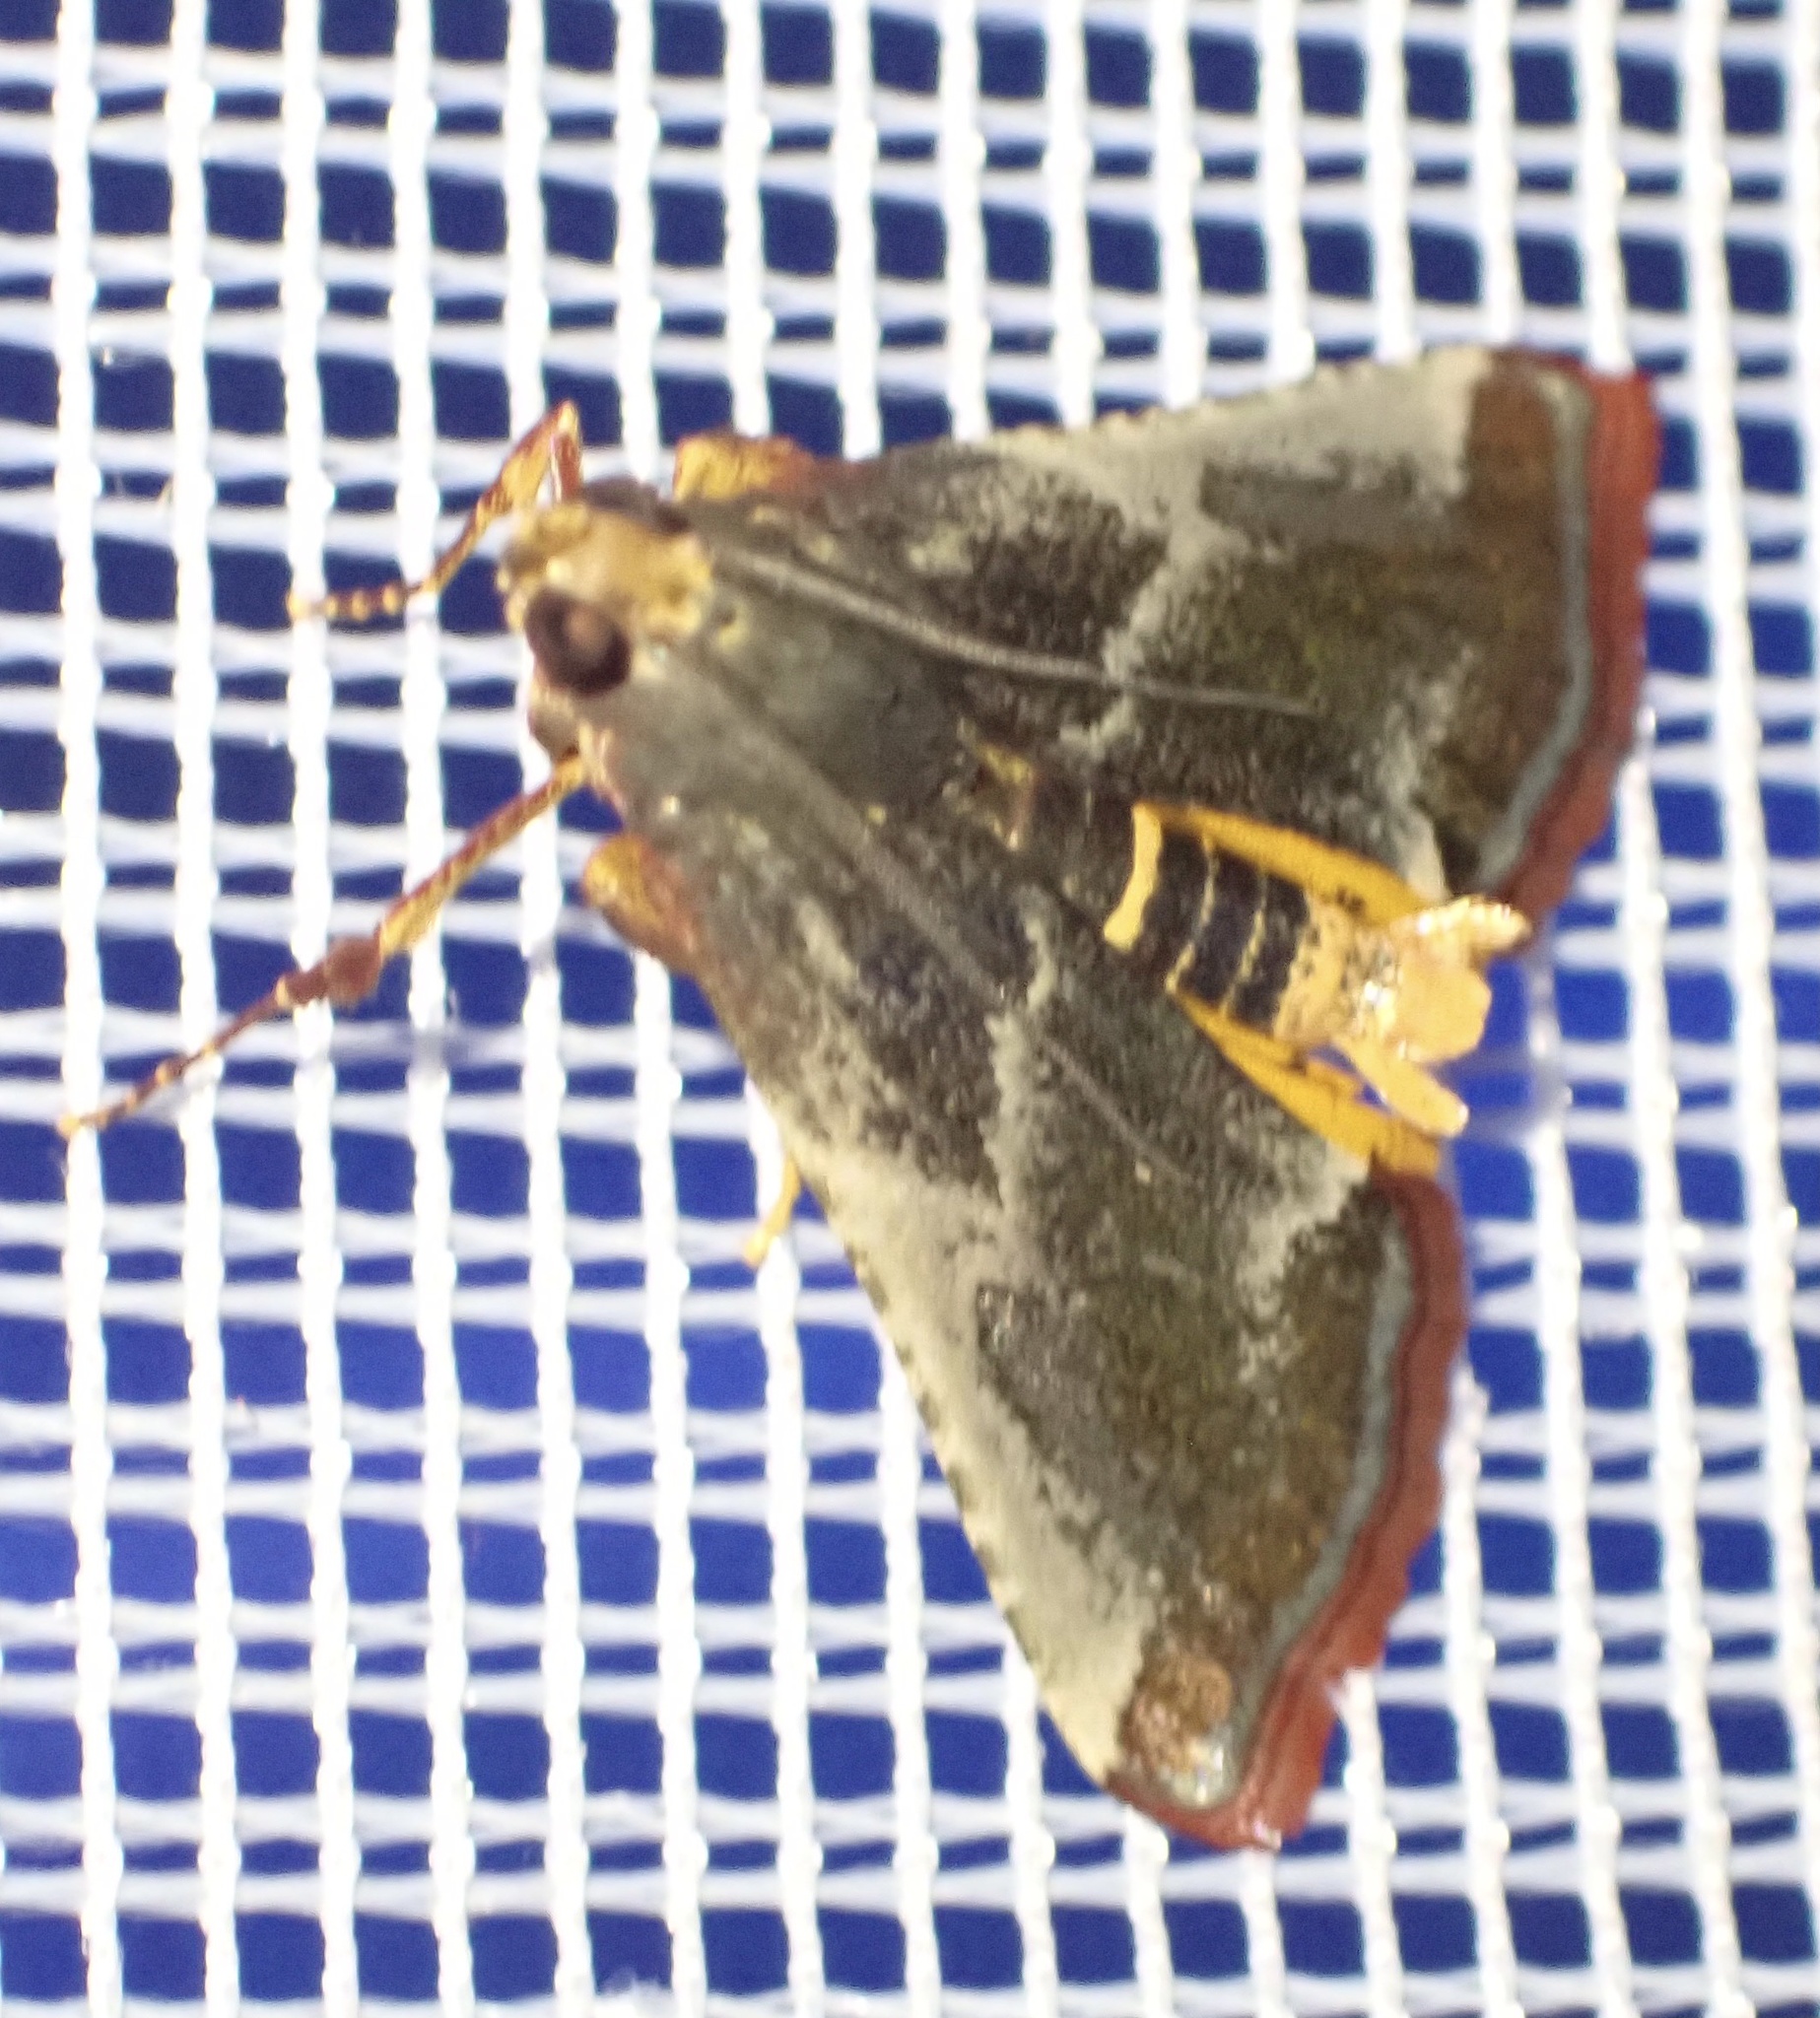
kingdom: Animalia
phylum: Arthropoda
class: Insecta
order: Lepidoptera
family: Pyralidae
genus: Pithyllis
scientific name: Pithyllis metachryseis
